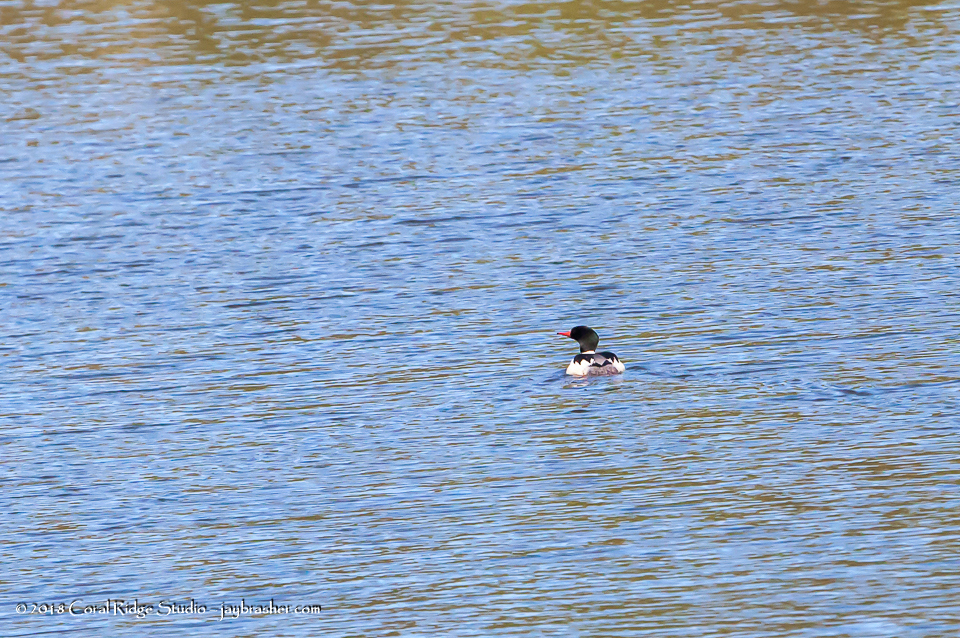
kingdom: Animalia
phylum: Chordata
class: Aves
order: Anseriformes
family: Anatidae
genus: Mergus
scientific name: Mergus merganser
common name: Common merganser
